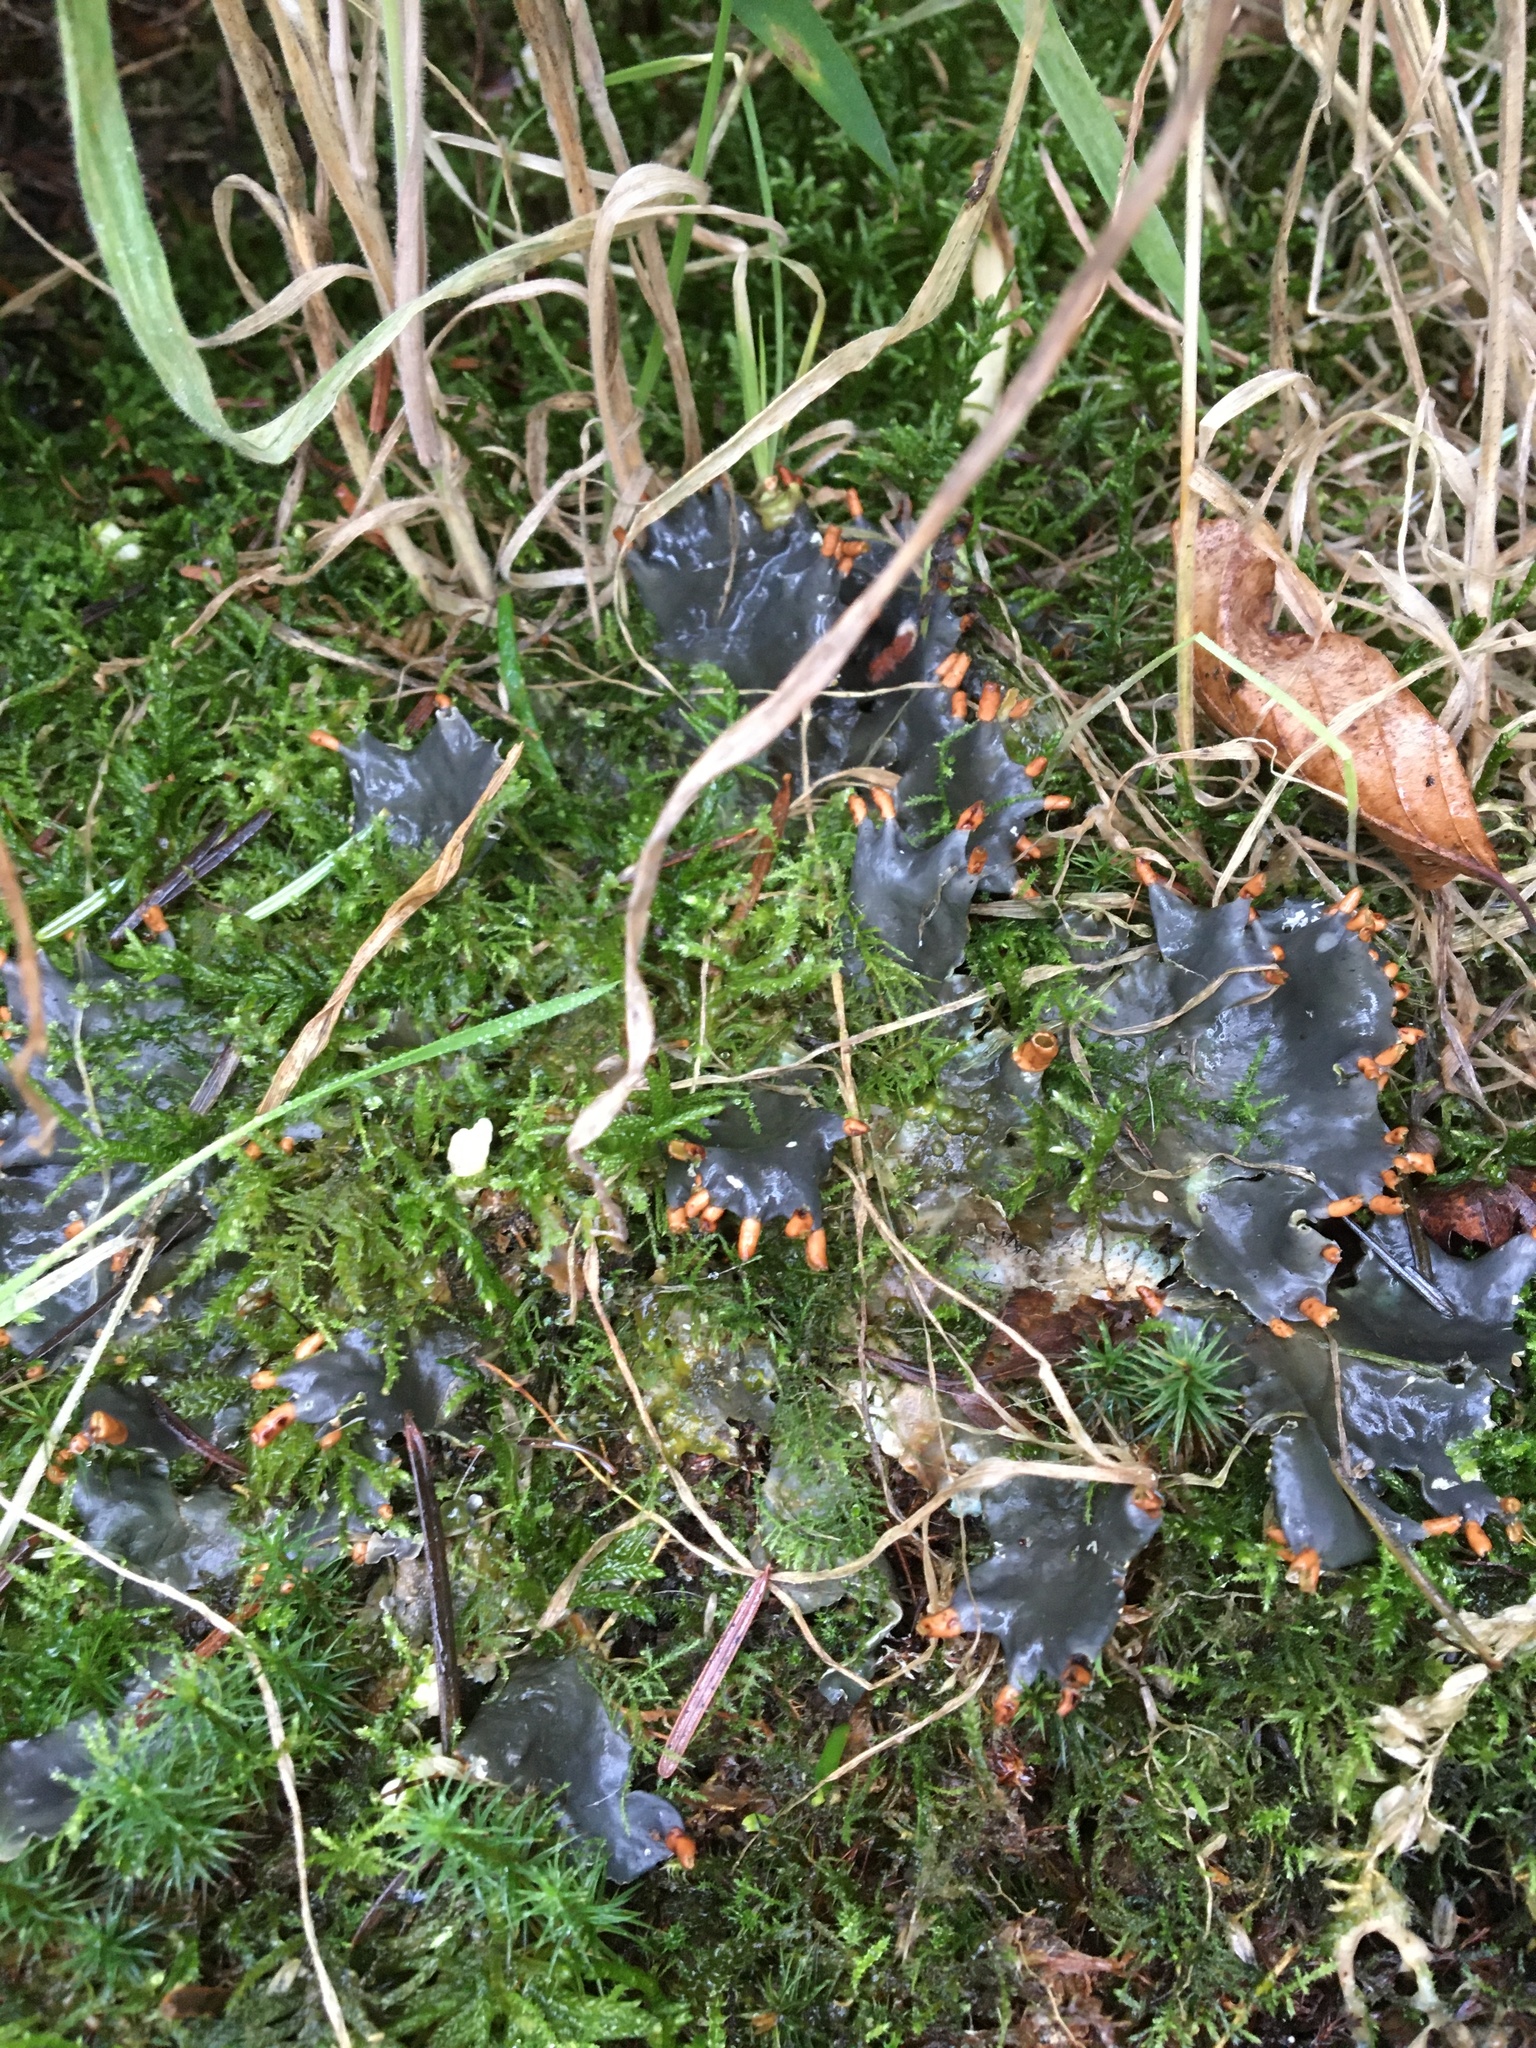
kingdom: Fungi
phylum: Ascomycota
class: Lecanoromycetes
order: Peltigerales
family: Peltigeraceae
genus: Peltigera
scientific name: Peltigera hymenina
